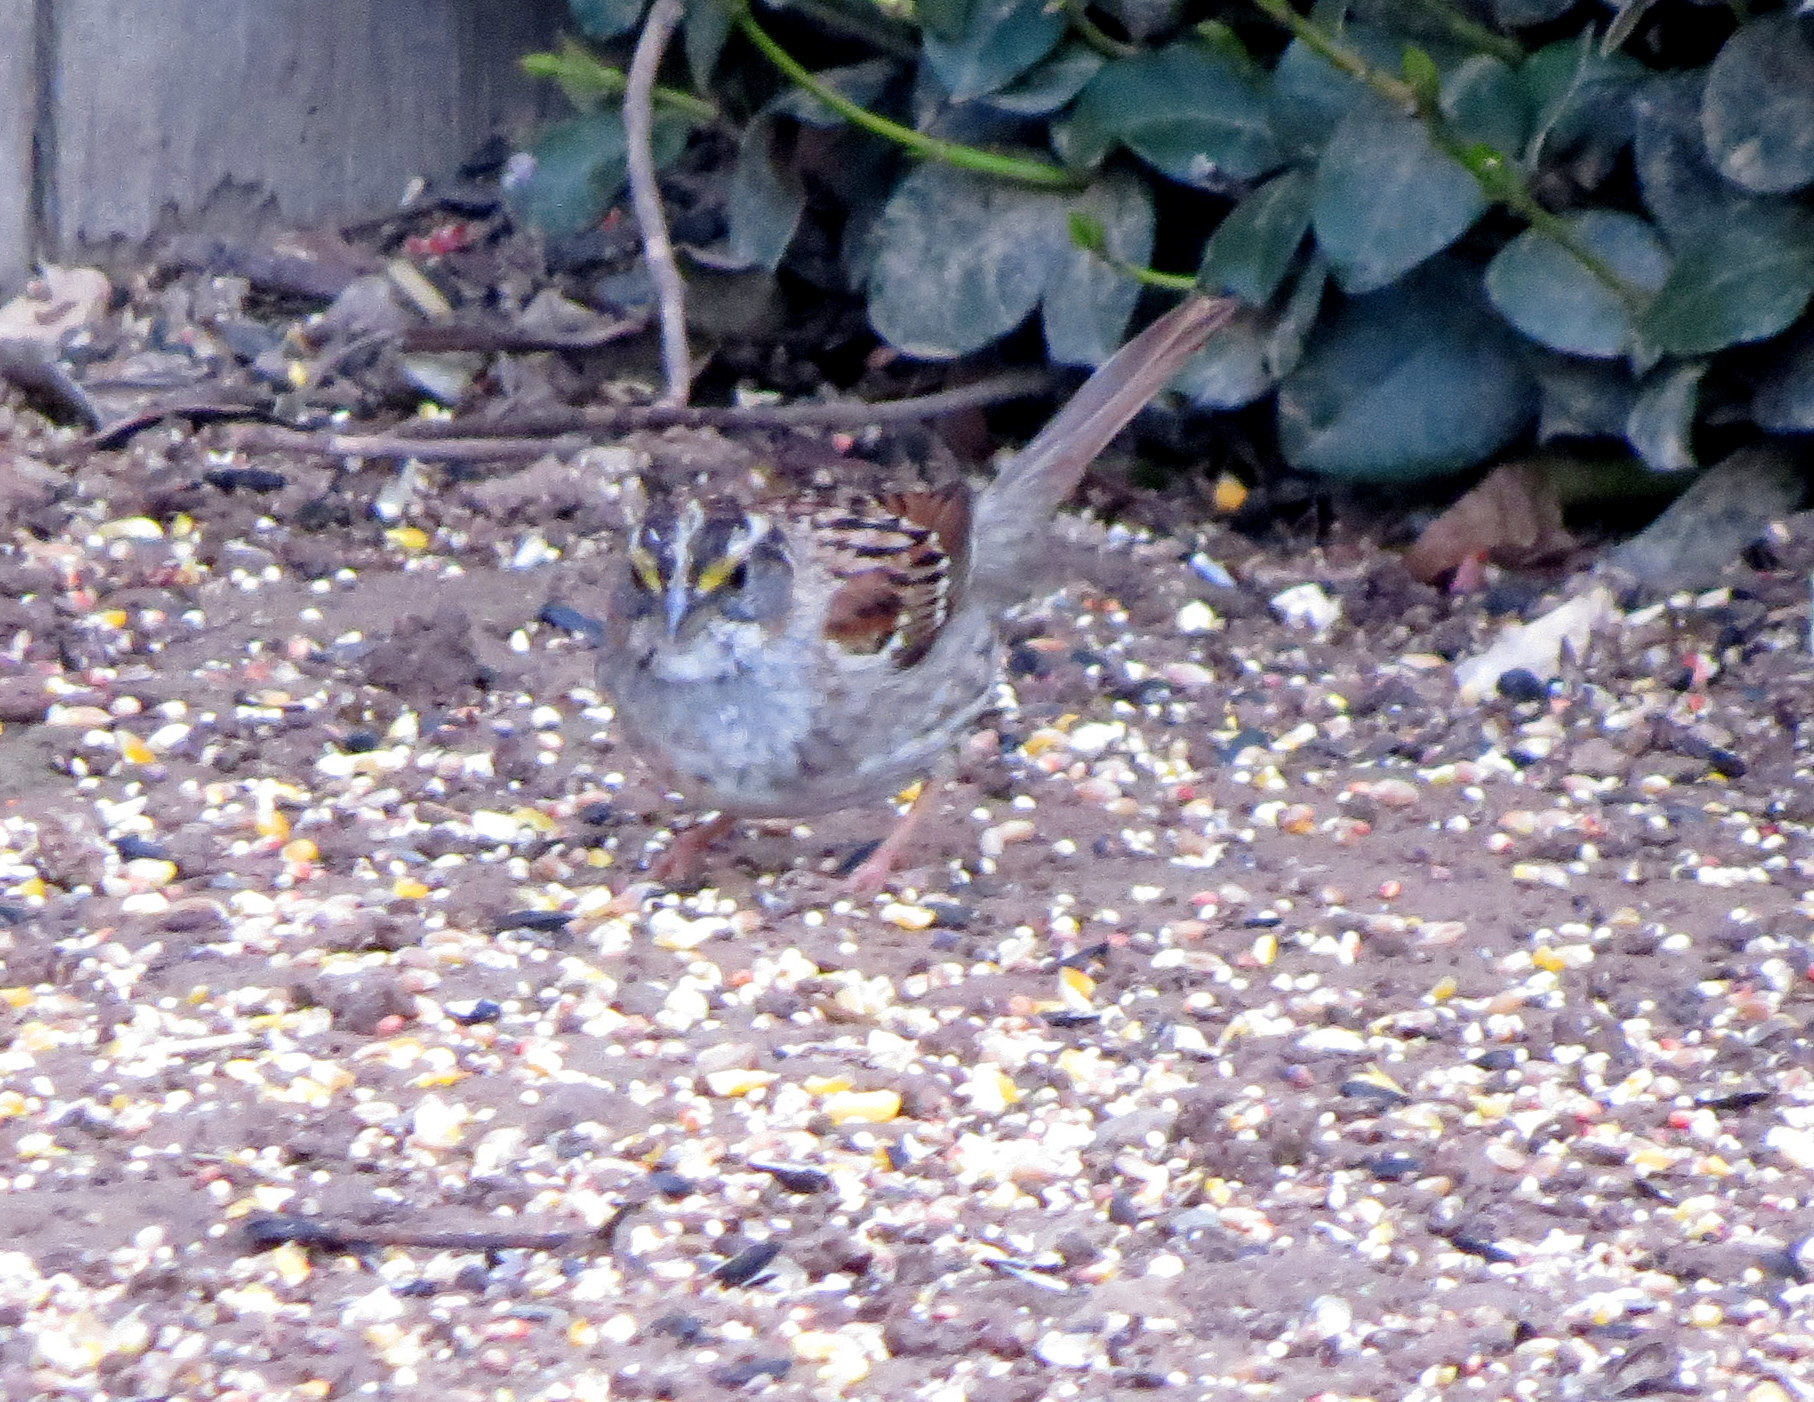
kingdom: Animalia
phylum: Chordata
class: Aves
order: Passeriformes
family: Passerellidae
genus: Zonotrichia
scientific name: Zonotrichia albicollis
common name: White-throated sparrow
